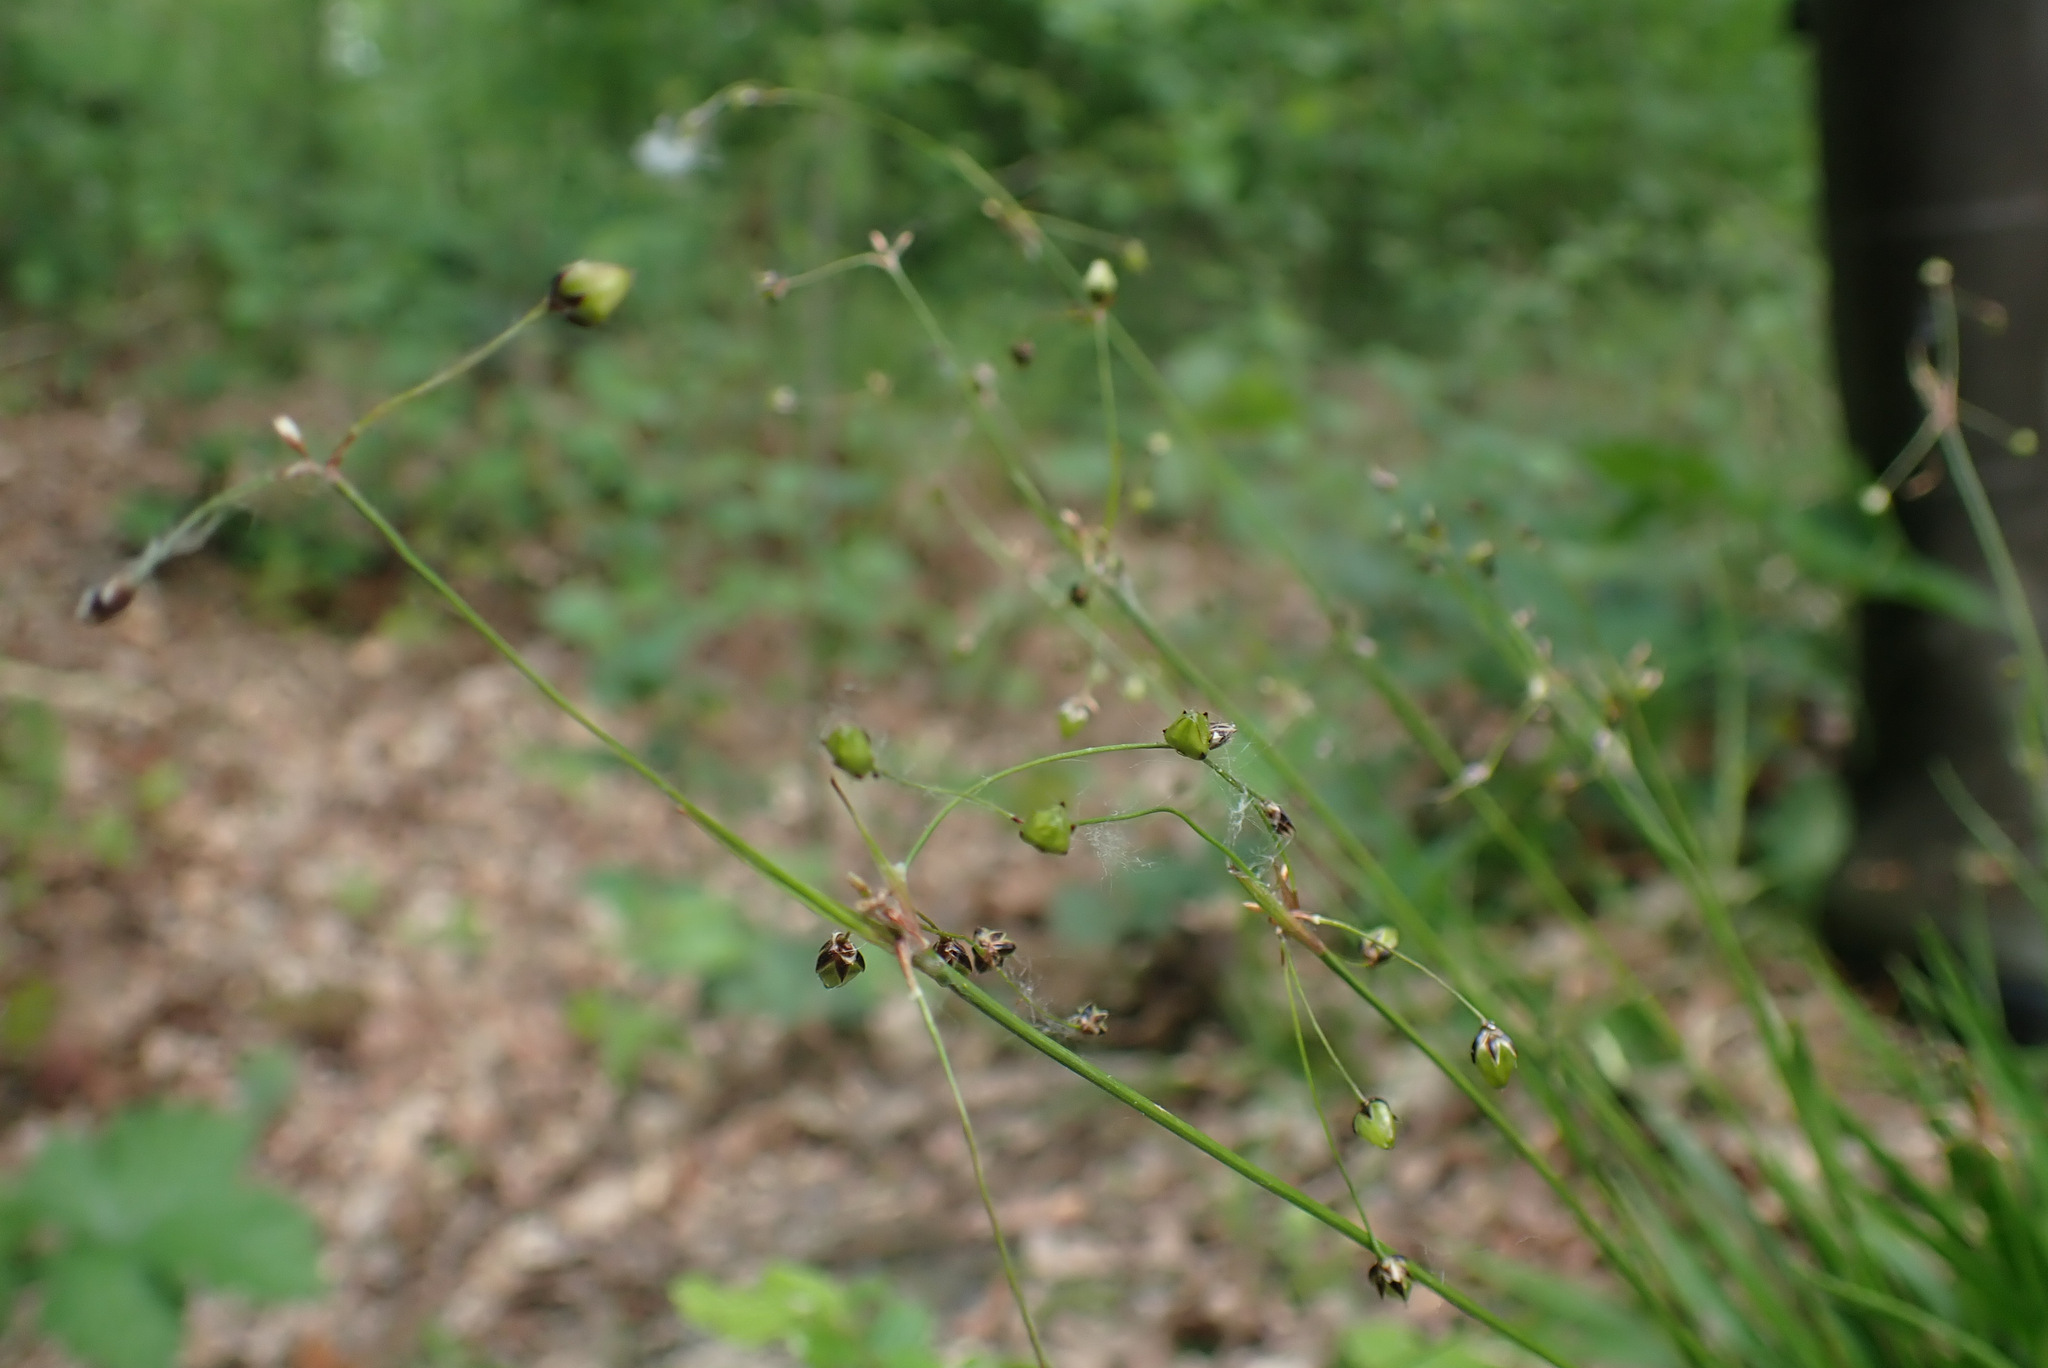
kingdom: Plantae
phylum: Tracheophyta
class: Liliopsida
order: Poales
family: Juncaceae
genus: Luzula
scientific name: Luzula pilosa
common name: Hairy wood-rush
